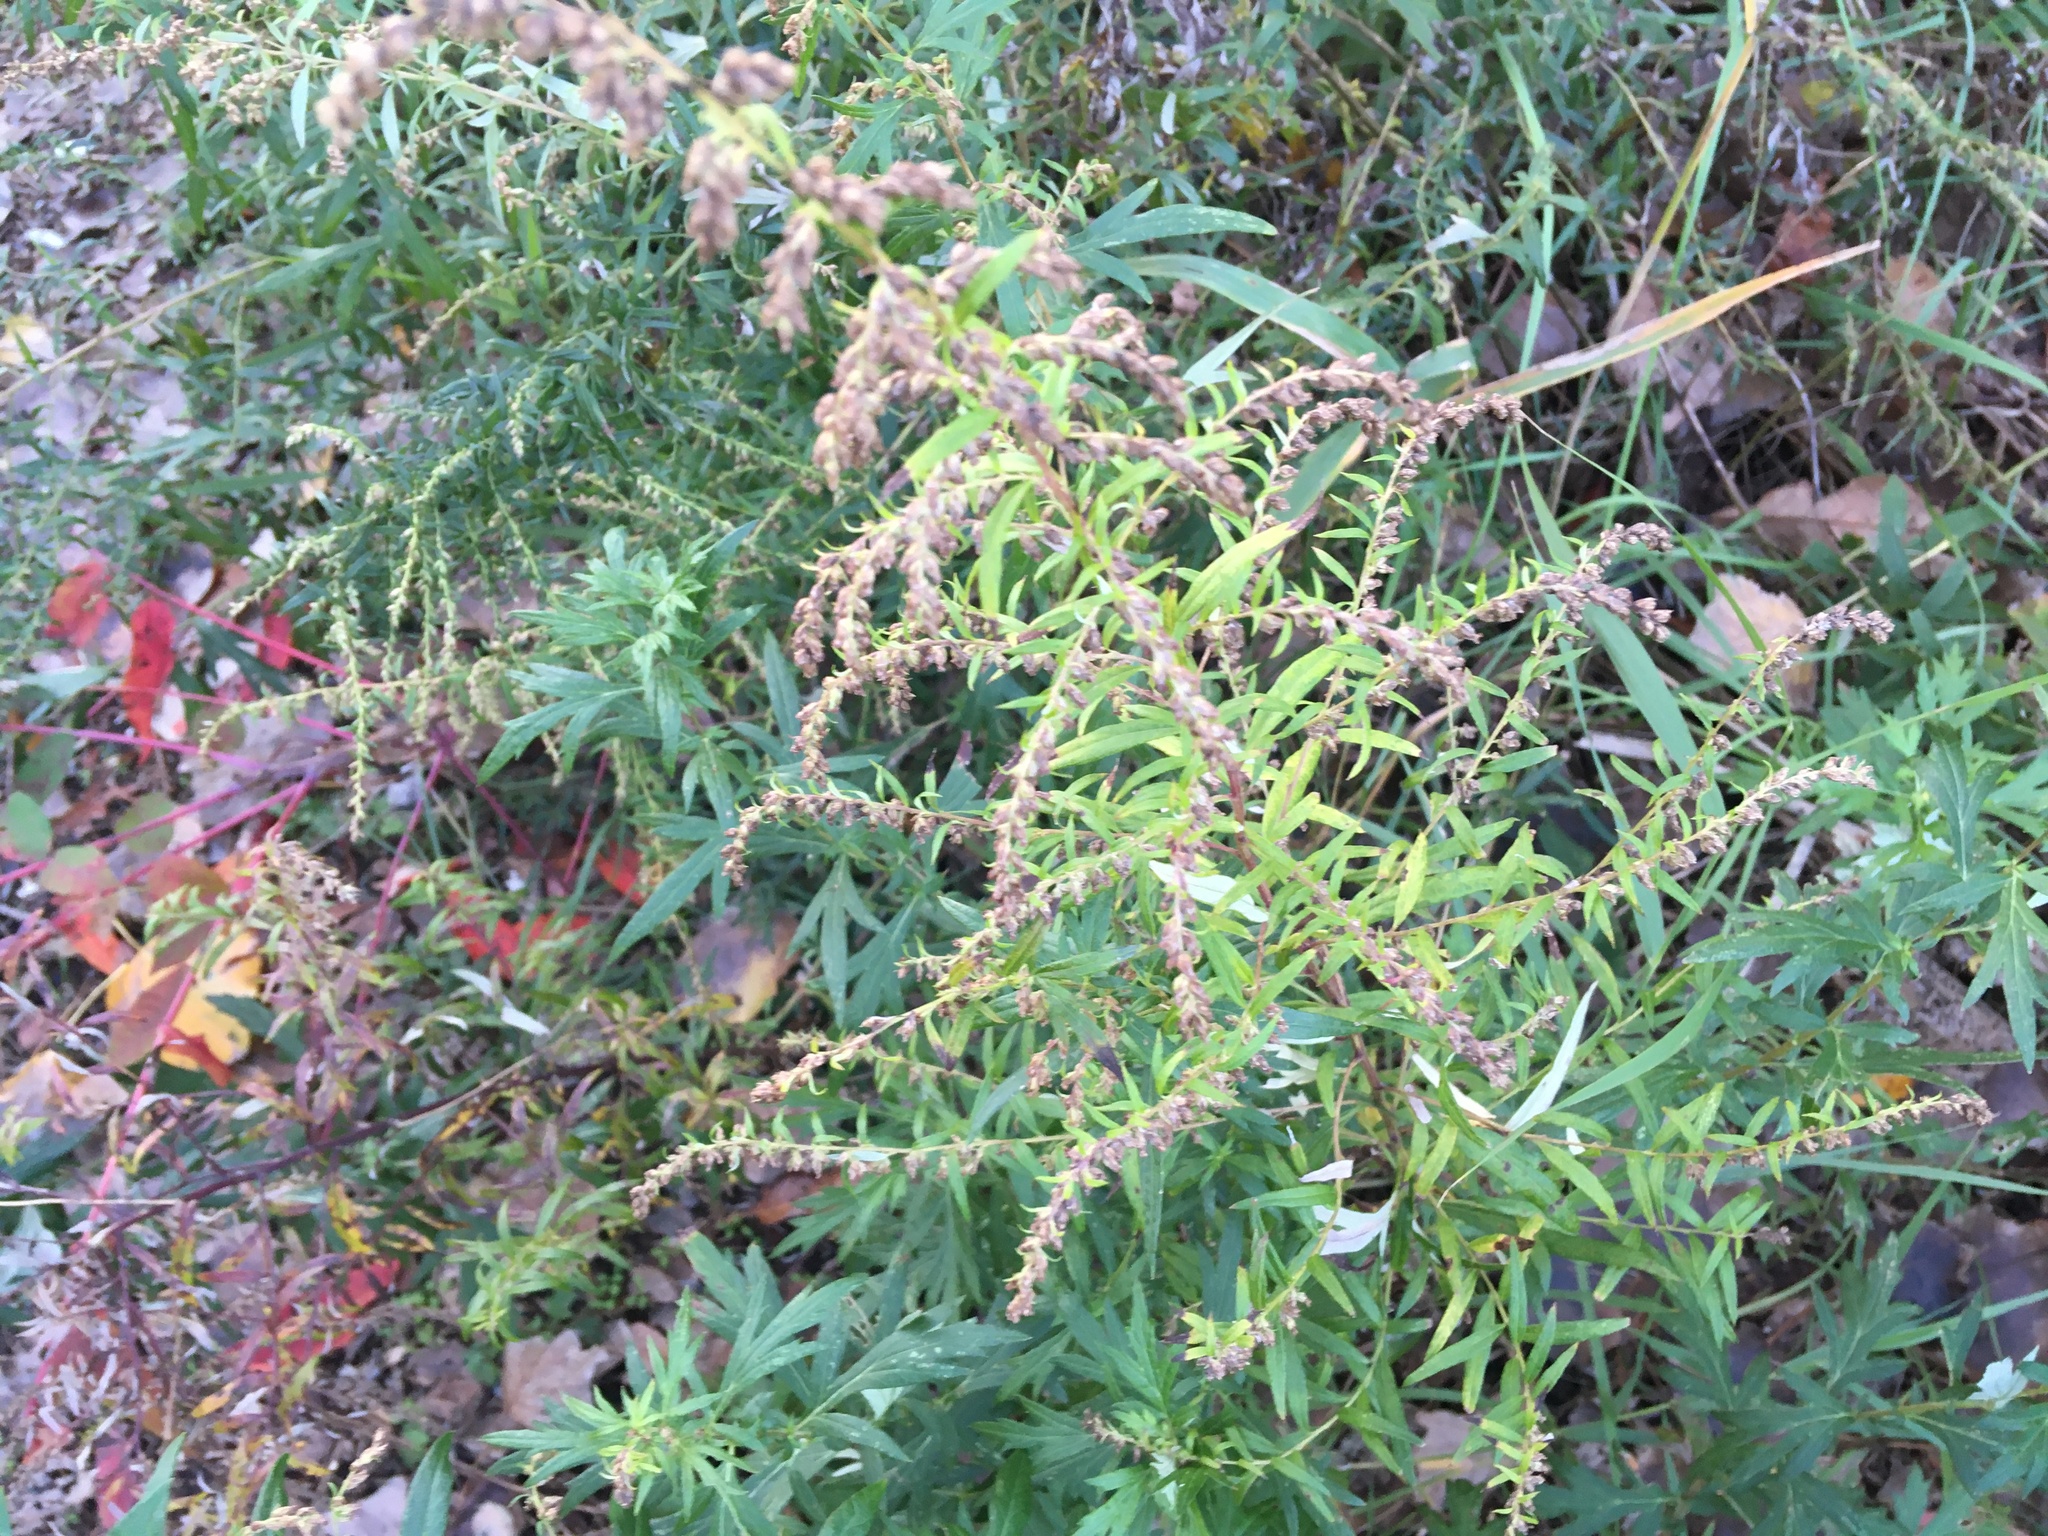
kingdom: Plantae
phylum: Tracheophyta
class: Magnoliopsida
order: Asterales
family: Asteraceae
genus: Artemisia
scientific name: Artemisia vulgaris
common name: Mugwort
